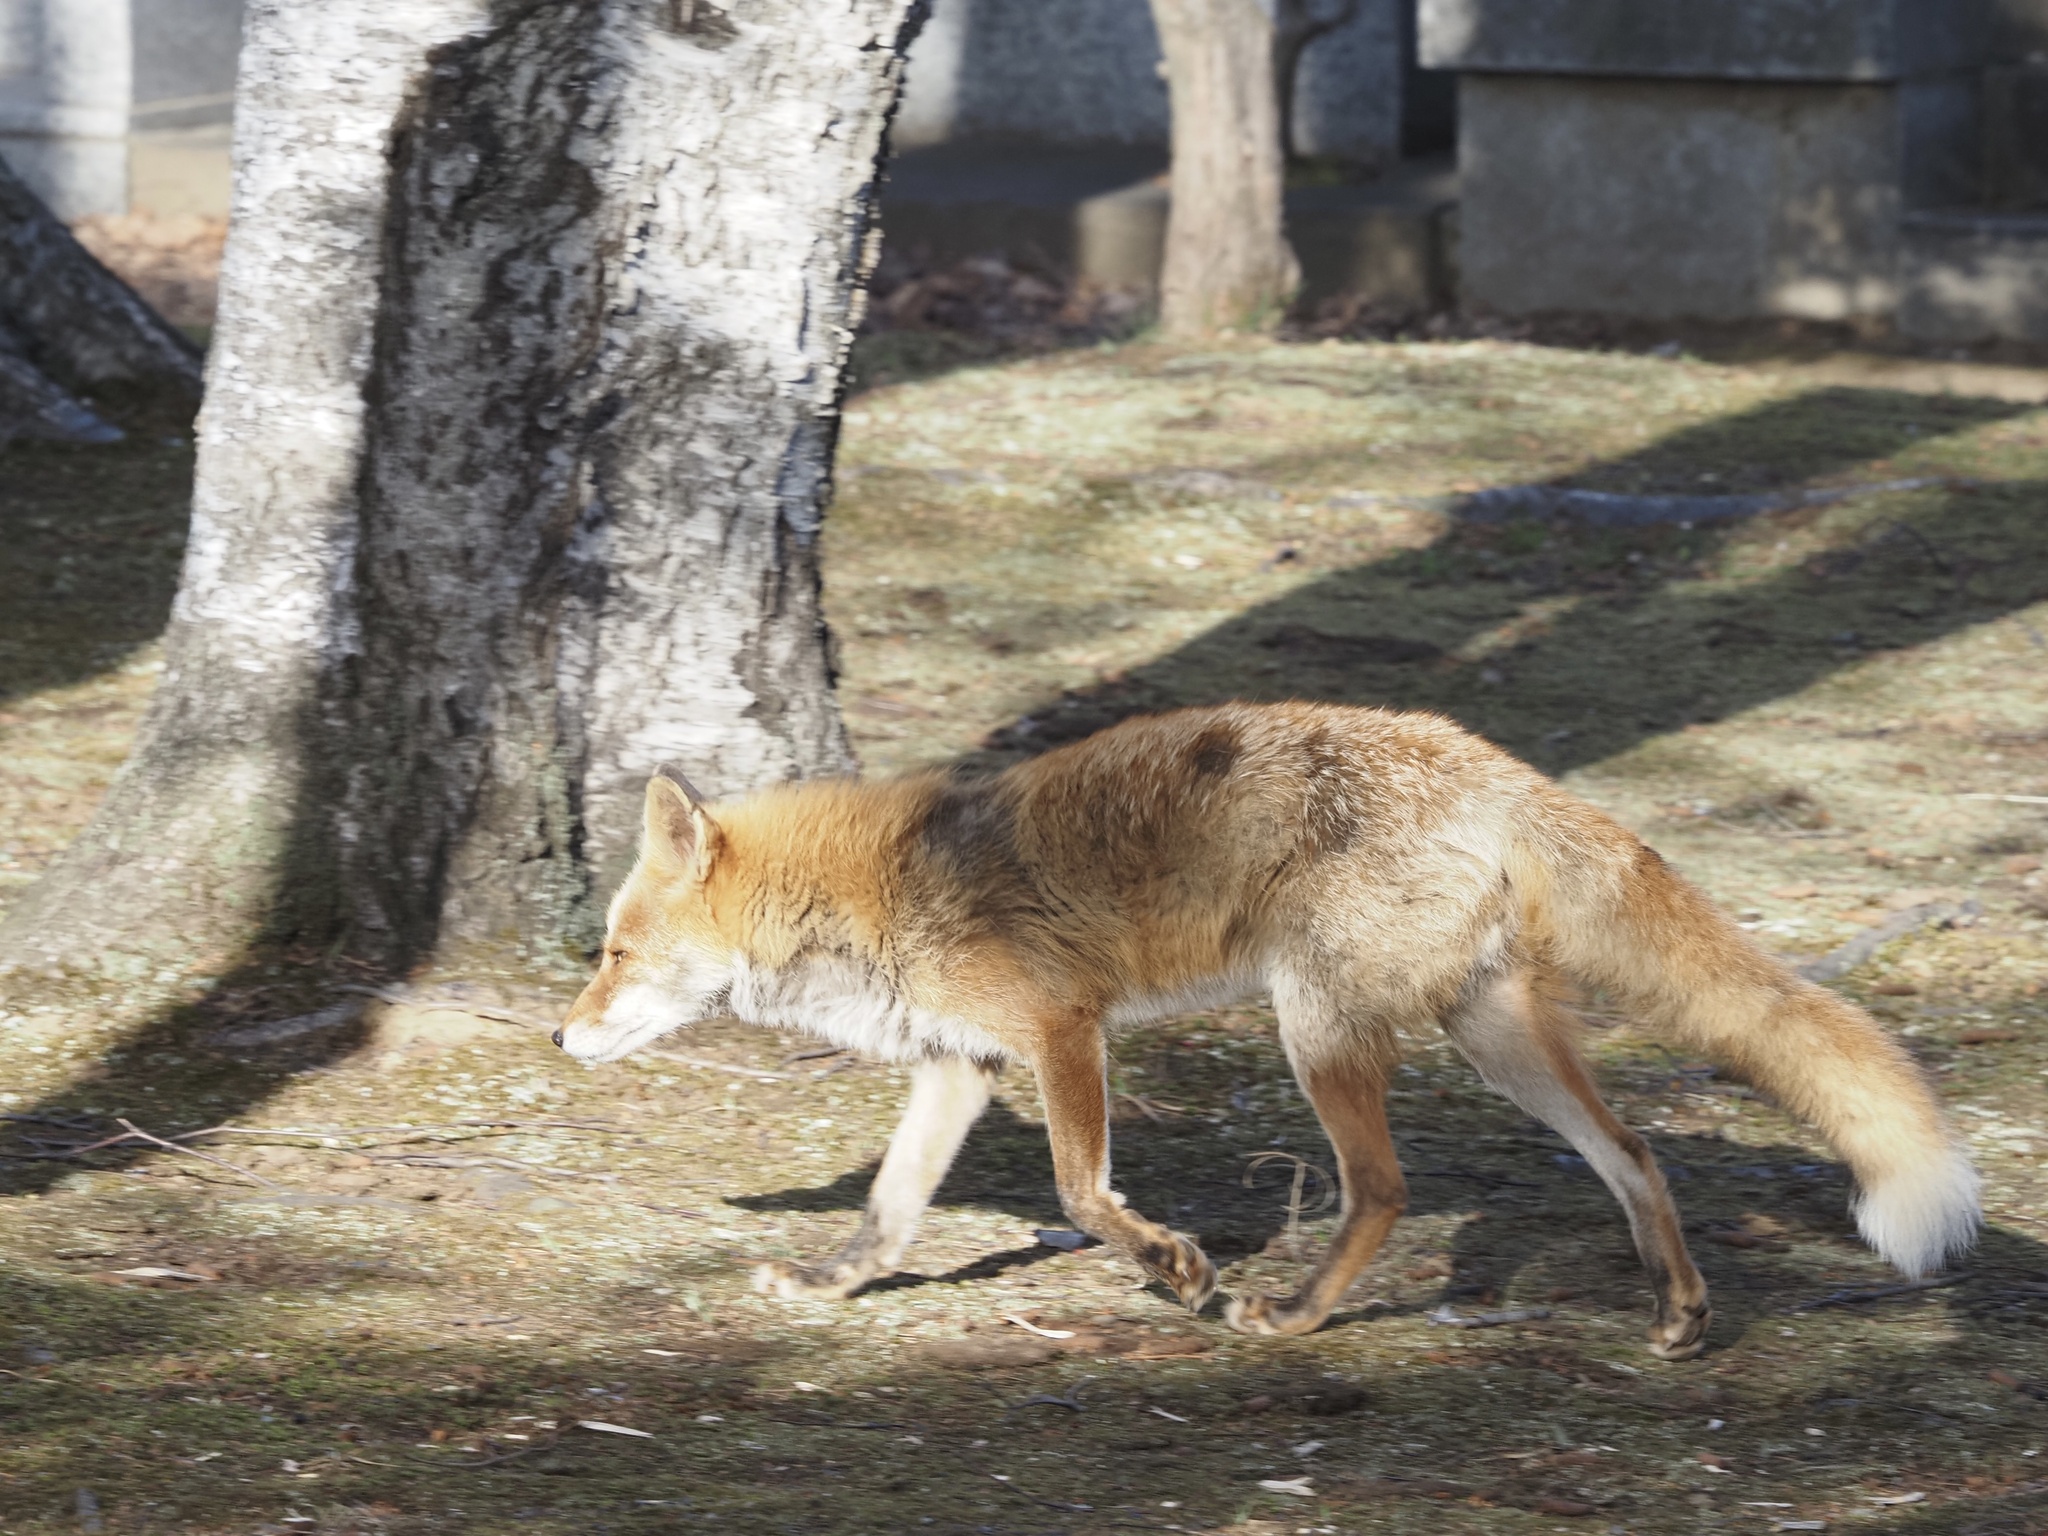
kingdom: Animalia
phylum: Chordata
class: Mammalia
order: Carnivora
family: Canidae
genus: Vulpes
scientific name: Vulpes vulpes
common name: Red fox
